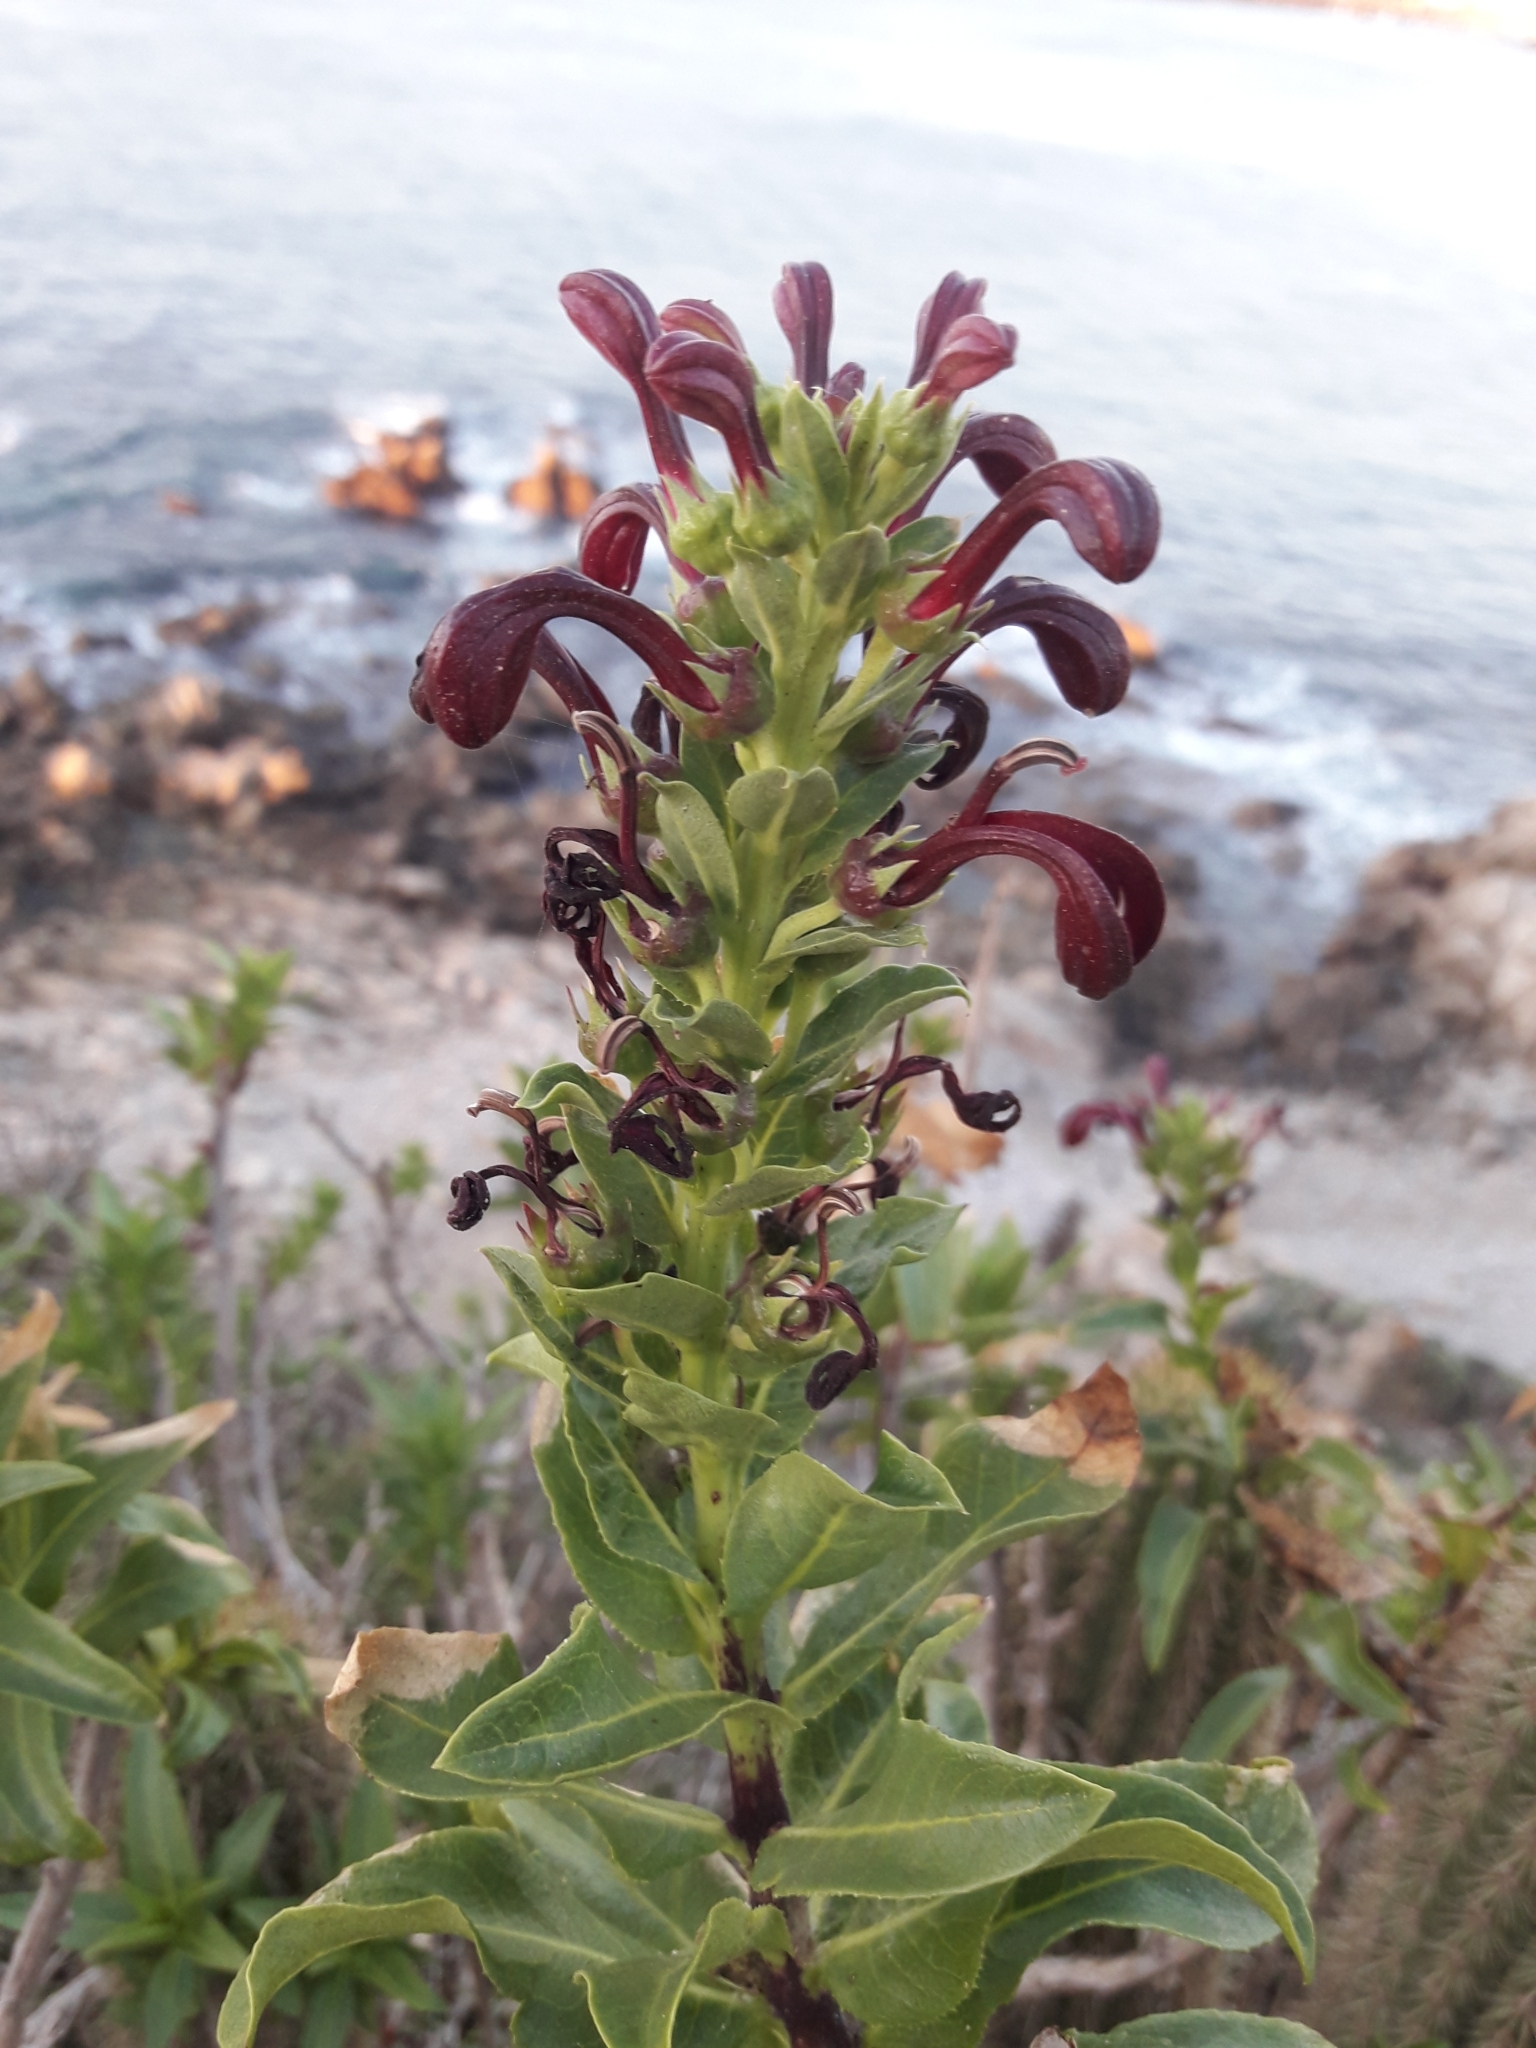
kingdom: Plantae
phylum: Tracheophyta
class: Magnoliopsida
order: Asterales
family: Campanulaceae
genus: Lobelia
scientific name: Lobelia polyphylla
